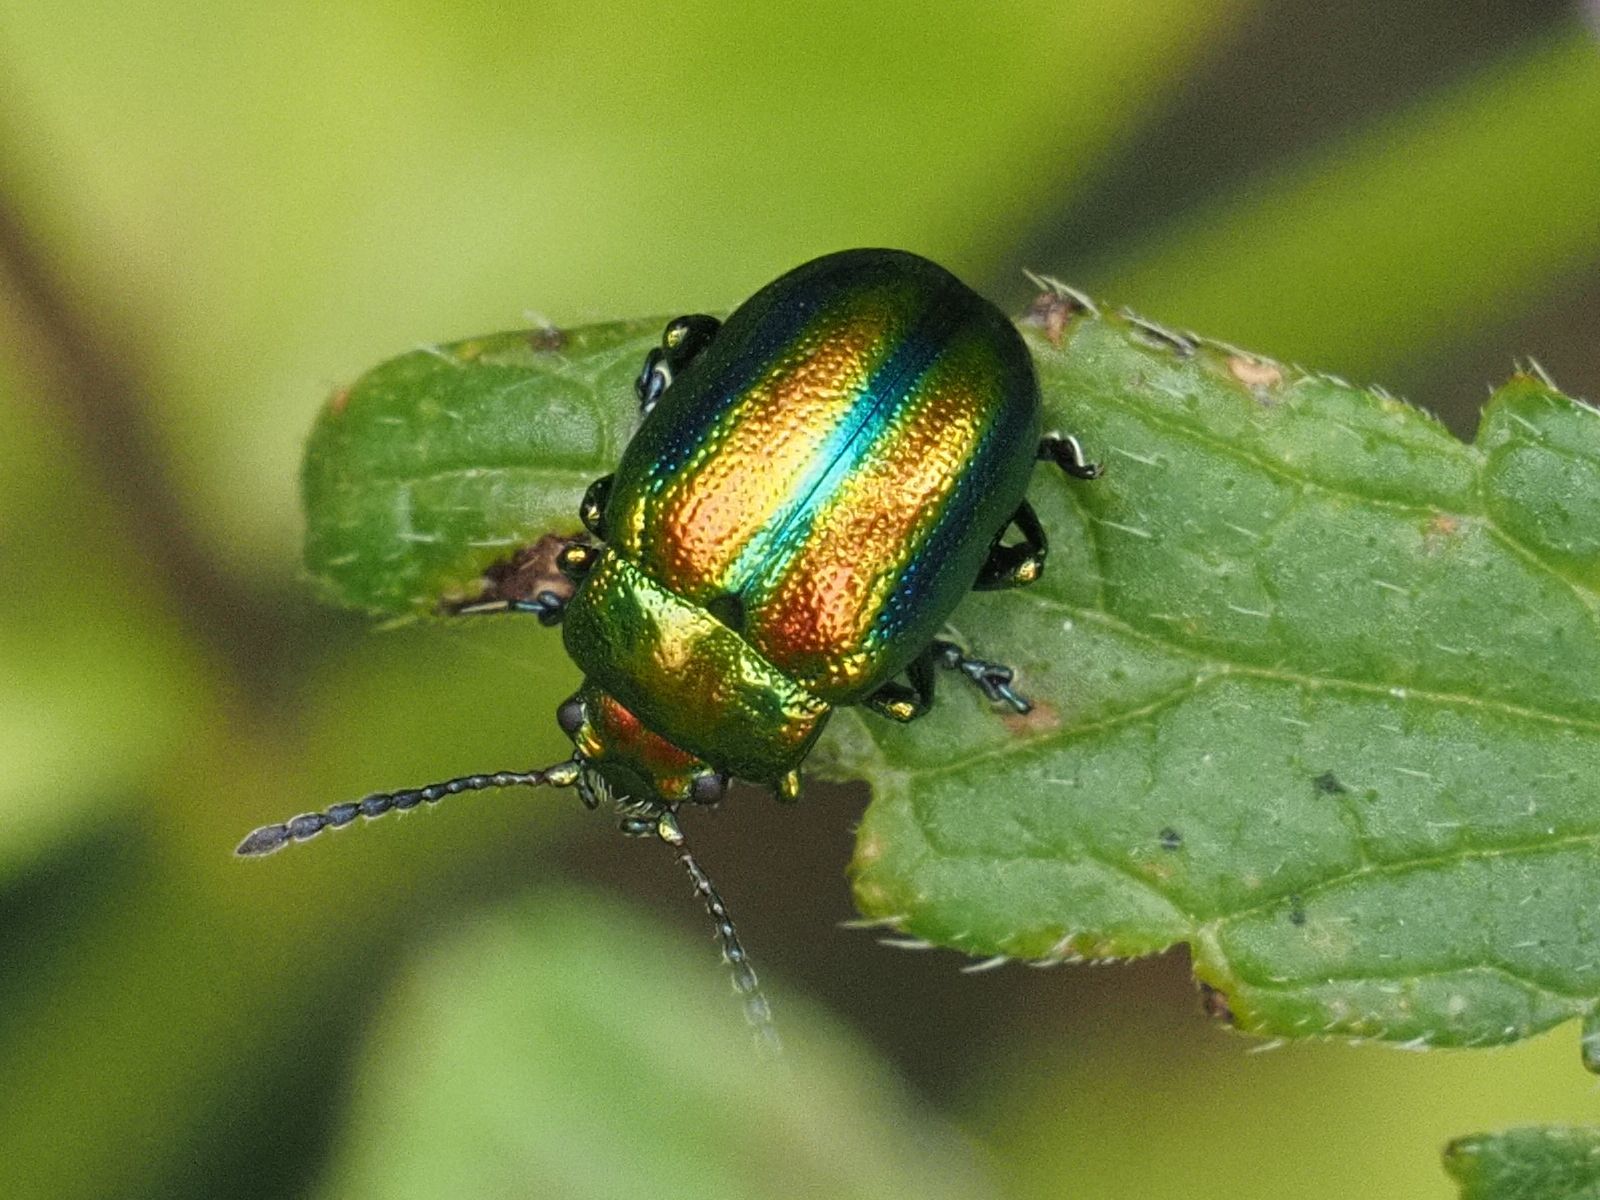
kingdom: Animalia
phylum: Arthropoda
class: Insecta
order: Coleoptera
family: Chrysomelidae
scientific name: Chrysomelidae
